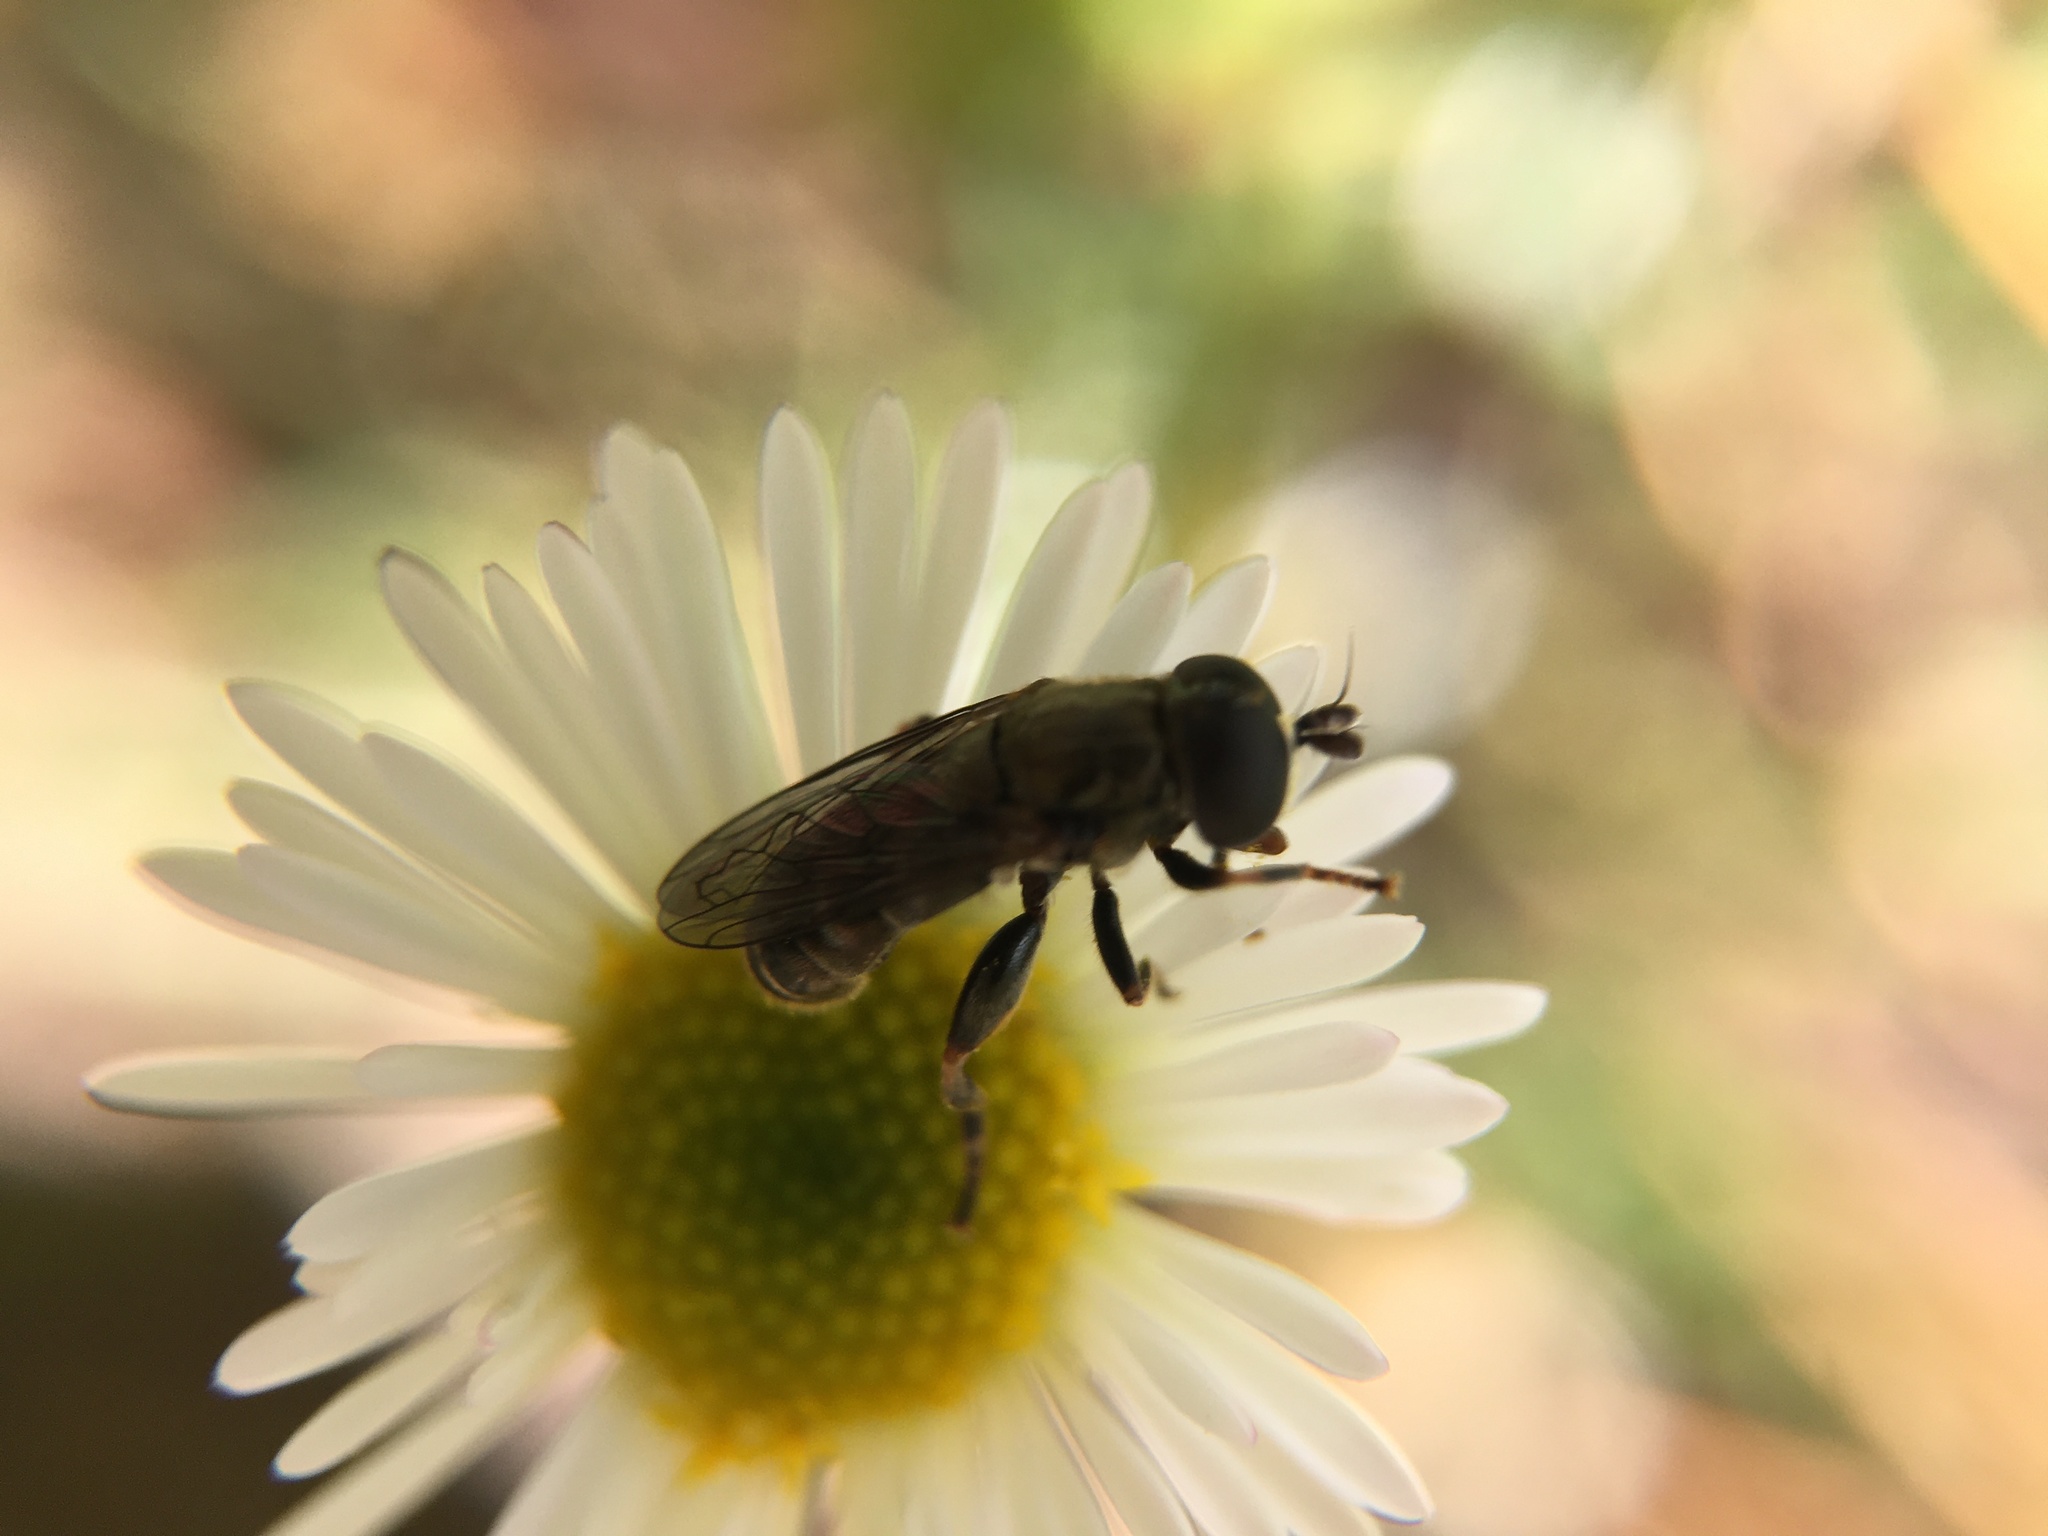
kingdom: Animalia
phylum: Arthropoda
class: Insecta
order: Diptera
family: Syrphidae
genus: Eumerus
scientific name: Eumerus
